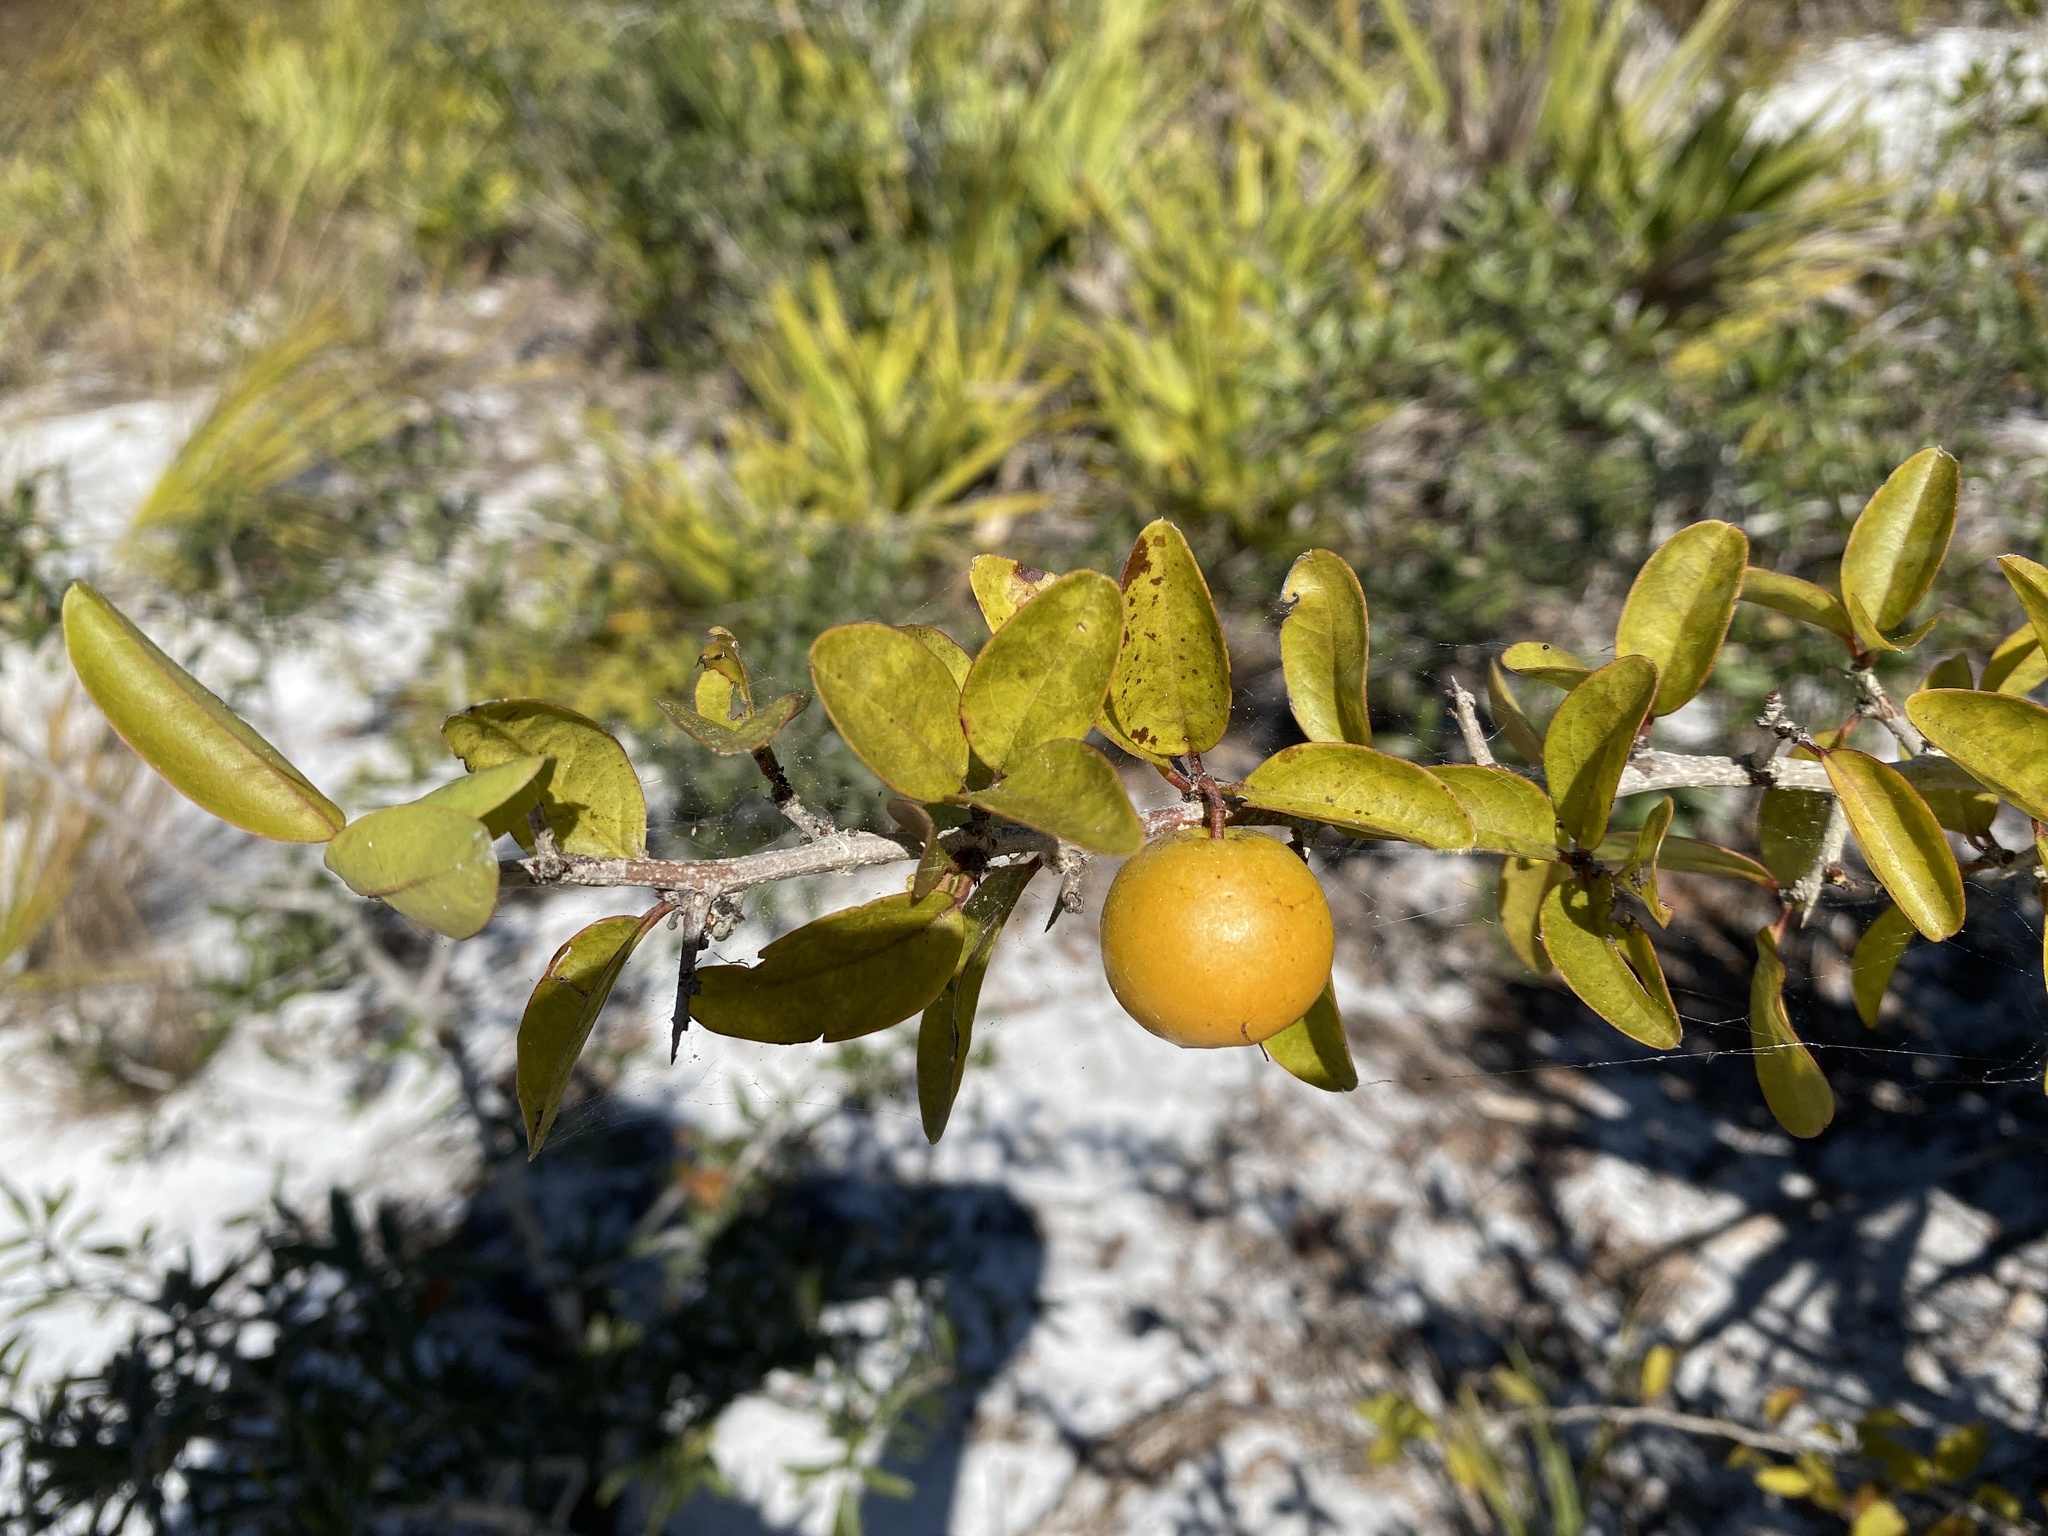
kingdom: Plantae
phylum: Tracheophyta
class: Magnoliopsida
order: Santalales
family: Ximeniaceae
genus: Ximenia
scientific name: Ximenia americana
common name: Tallowwood
